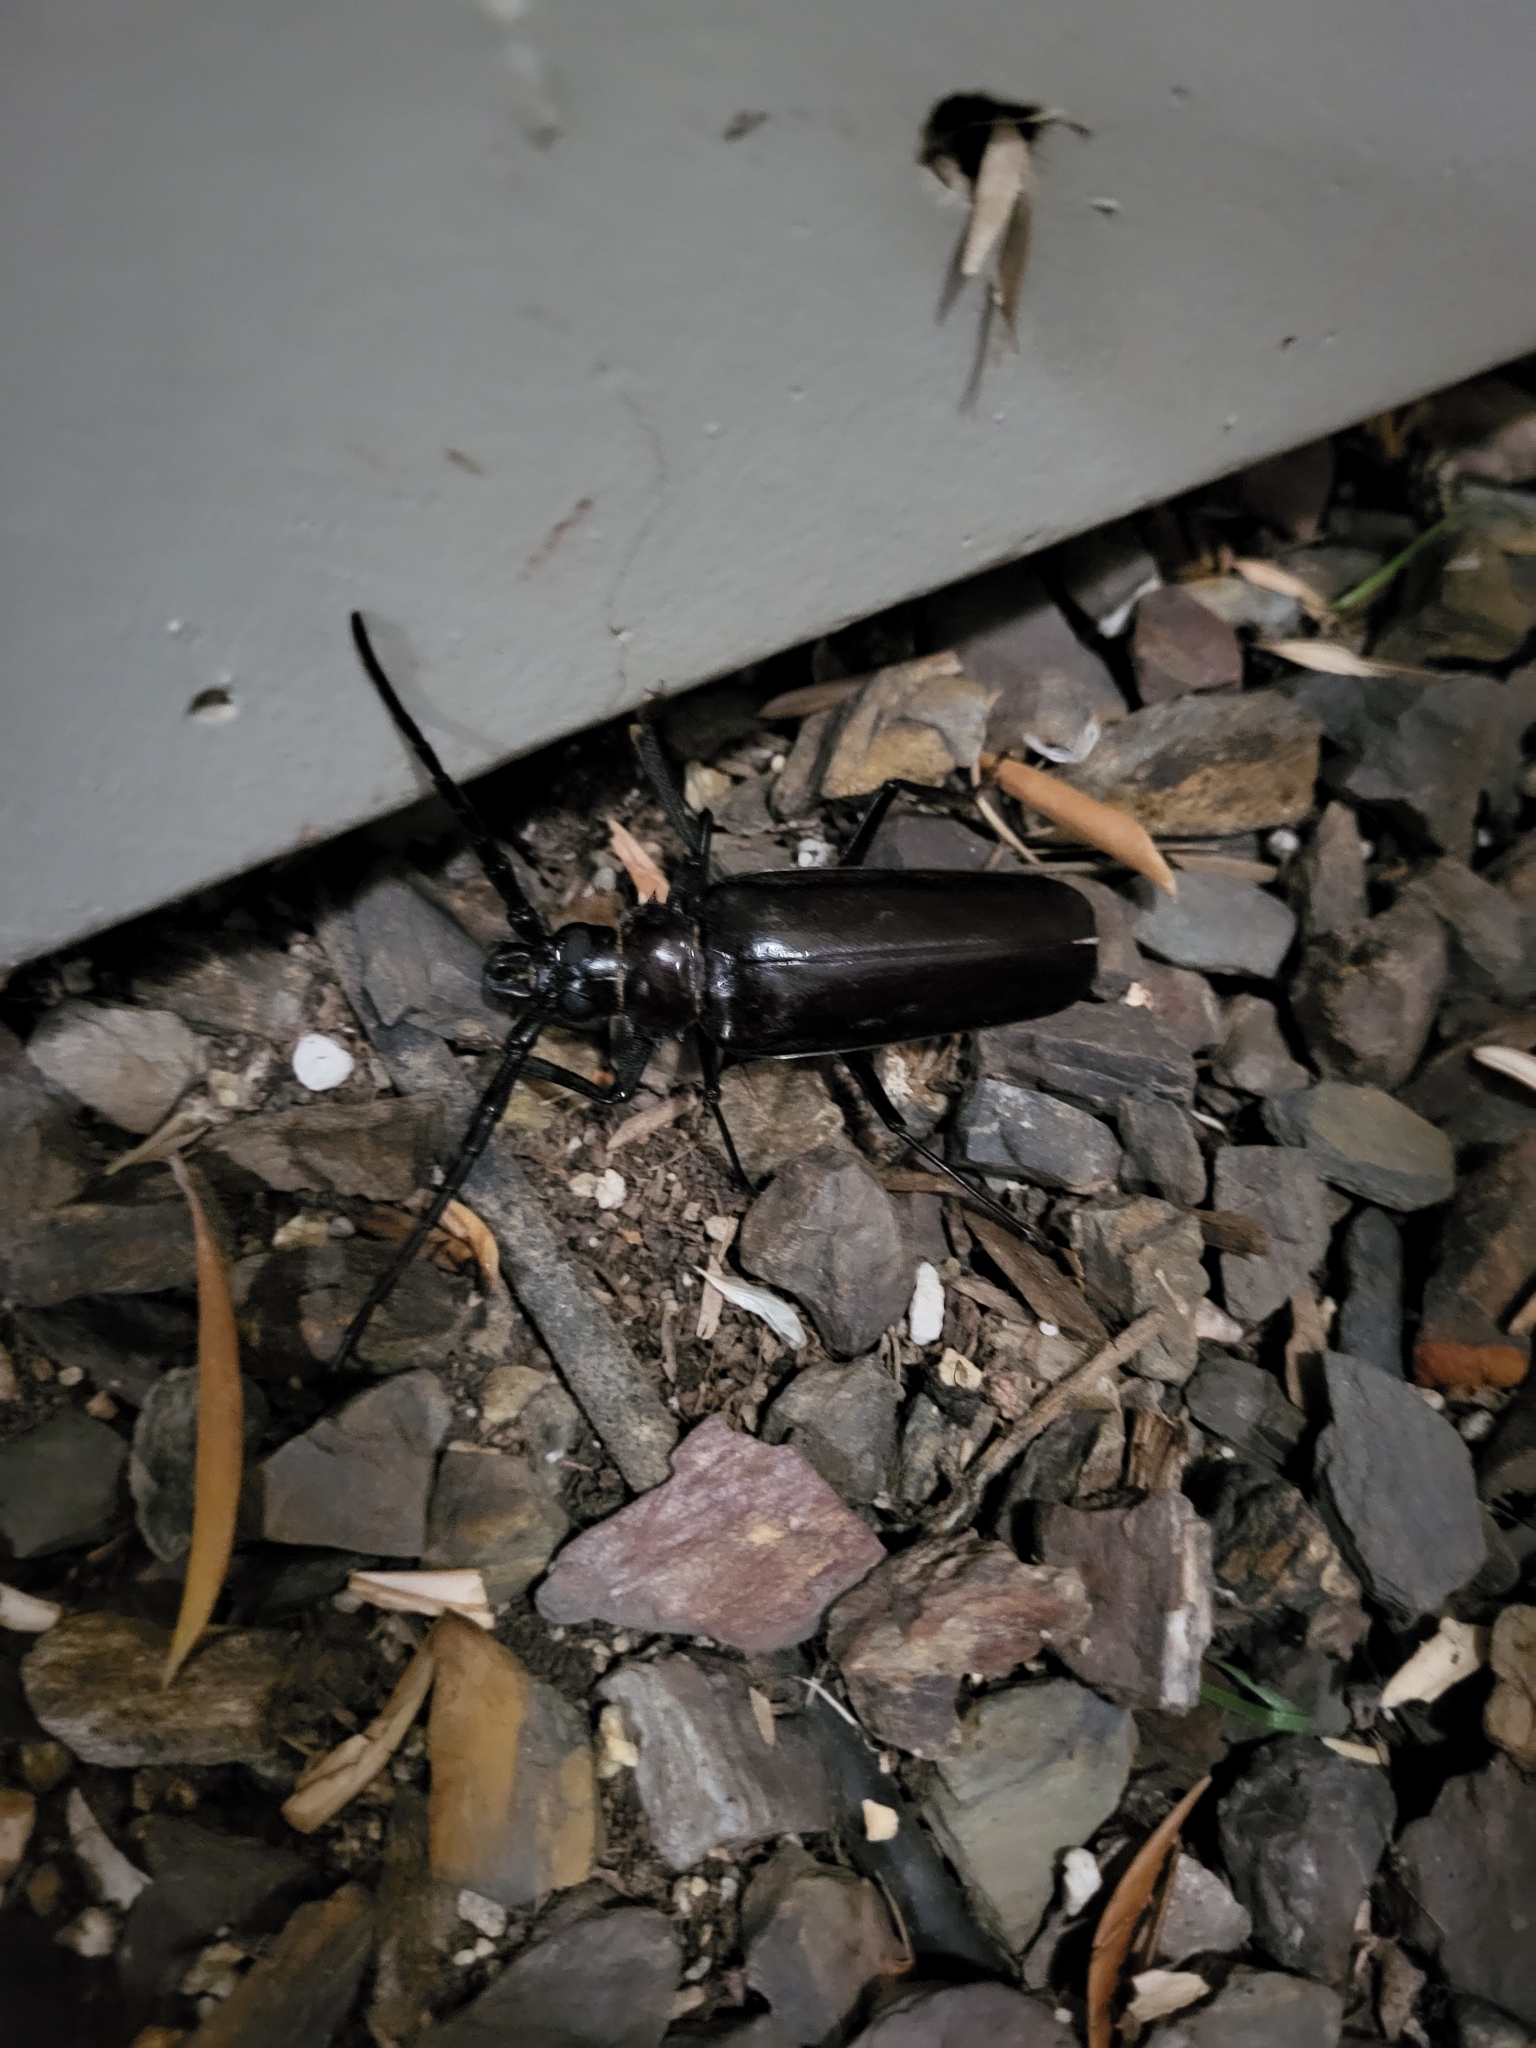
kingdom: Animalia
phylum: Arthropoda
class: Insecta
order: Coleoptera
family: Cerambycidae
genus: Derobrachus
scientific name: Derobrachus hovorei
